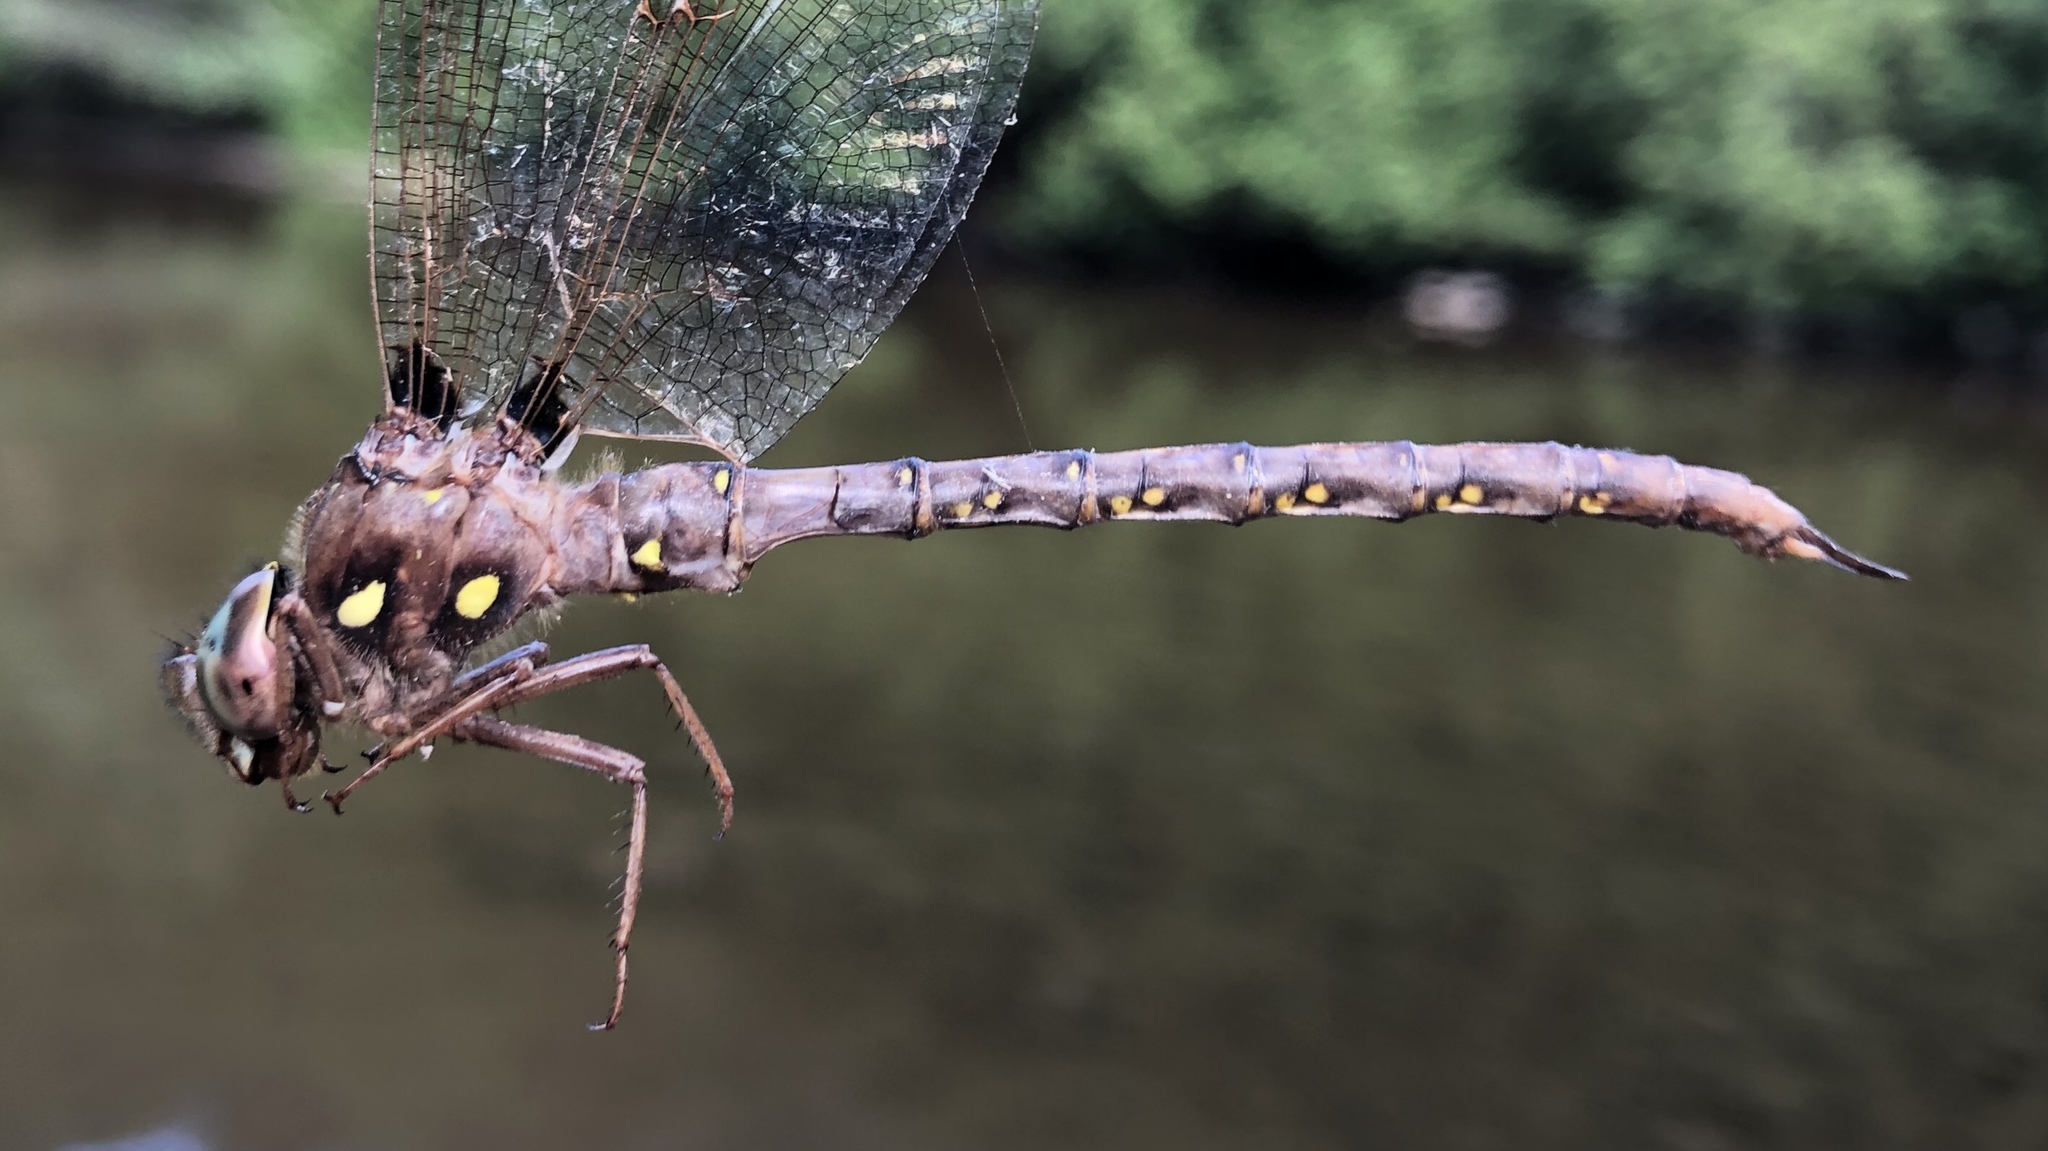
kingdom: Animalia
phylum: Arthropoda
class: Insecta
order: Odonata
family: Aeshnidae
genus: Boyeria
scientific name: Boyeria vinosa
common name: Fawn darner
